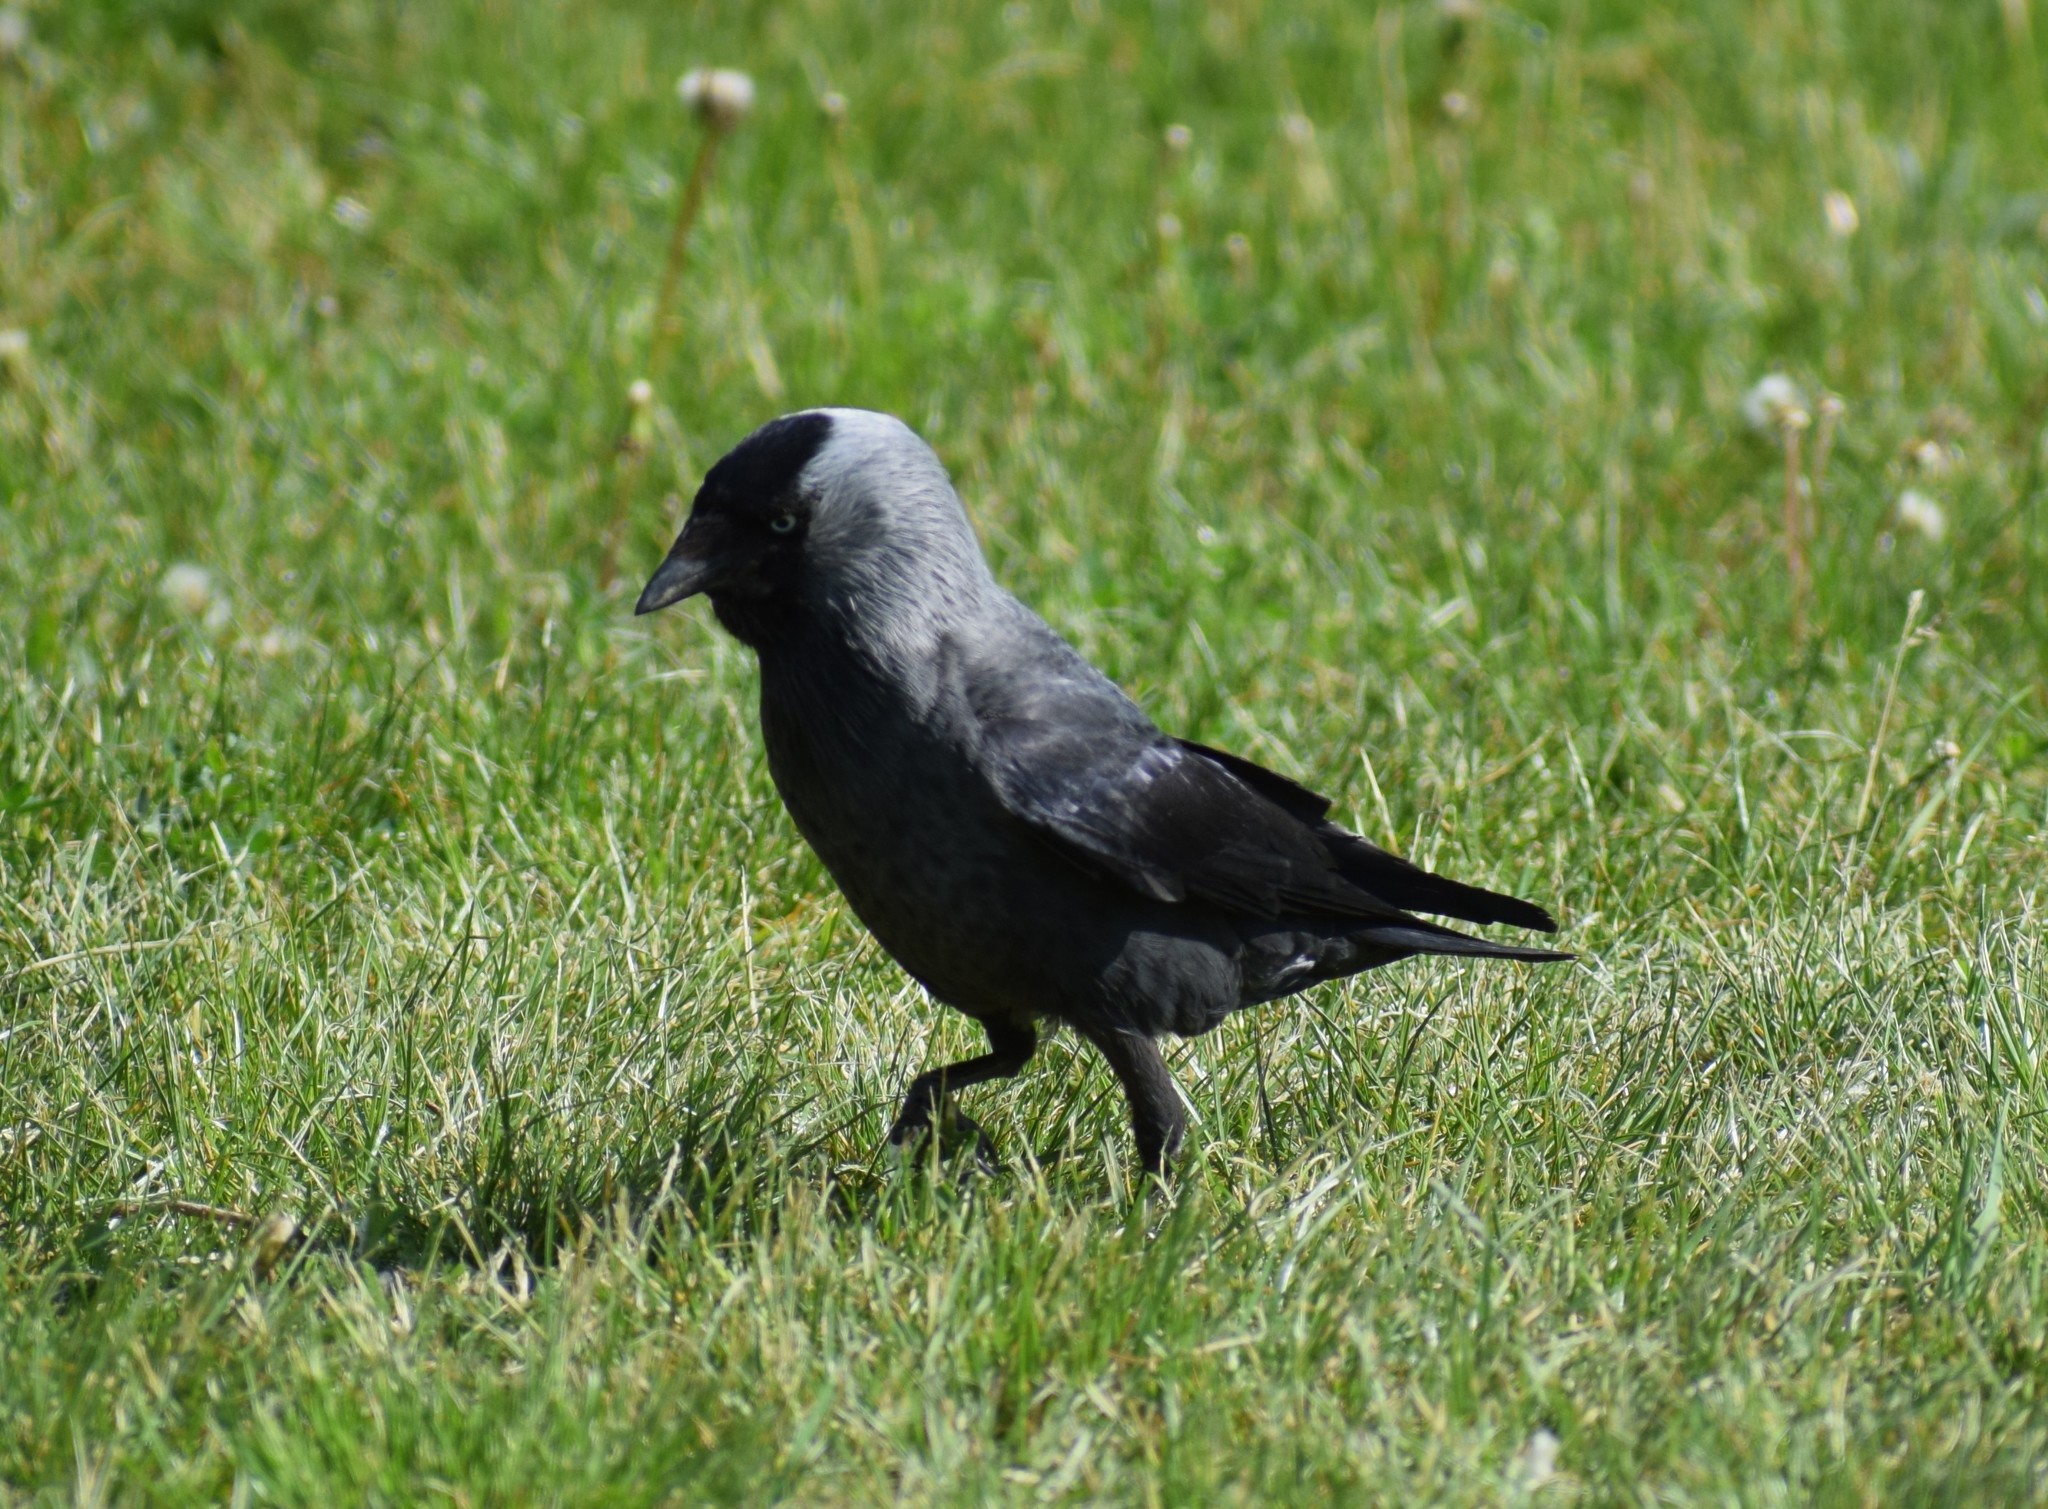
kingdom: Animalia
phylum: Chordata
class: Aves
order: Passeriformes
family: Corvidae
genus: Coloeus
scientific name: Coloeus monedula
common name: Western jackdaw
